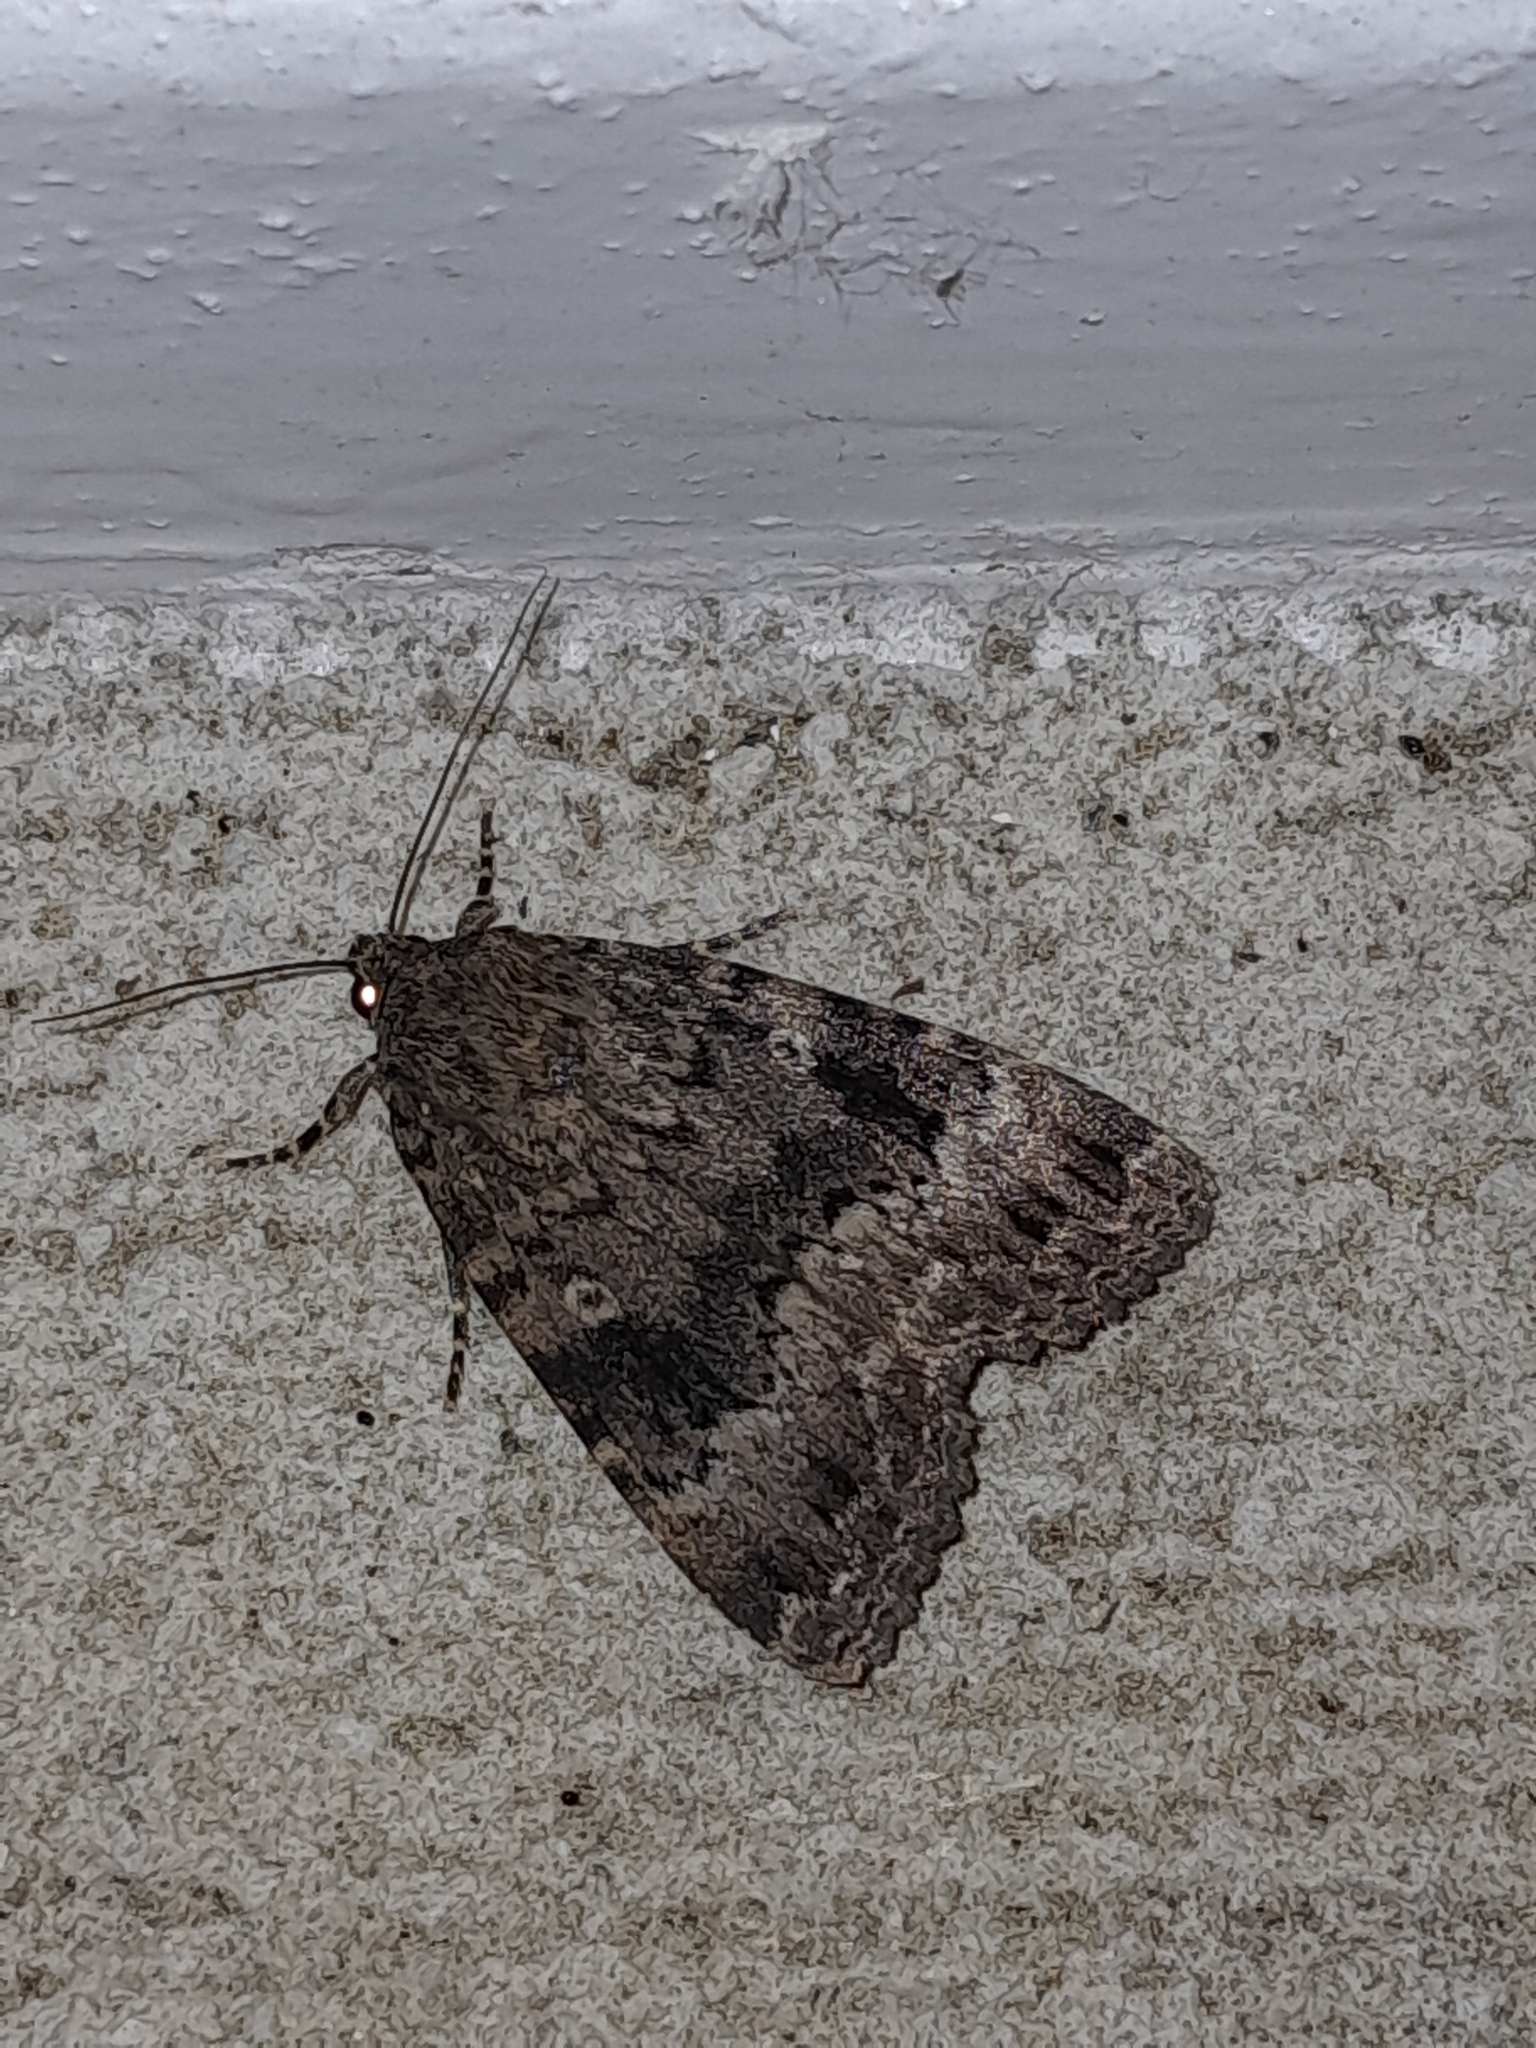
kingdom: Animalia
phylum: Arthropoda
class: Insecta
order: Lepidoptera
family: Noctuidae
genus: Amphipyra
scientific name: Amphipyra berbera
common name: Svensson's copper underwing
